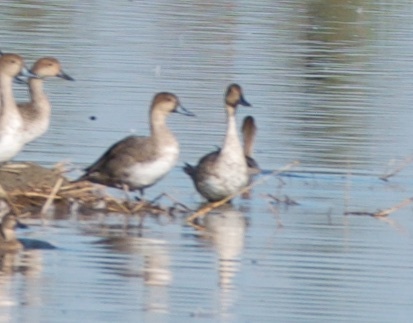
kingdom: Animalia
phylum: Chordata
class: Aves
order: Anseriformes
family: Anatidae
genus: Anas
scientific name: Anas acuta
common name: Northern pintail
